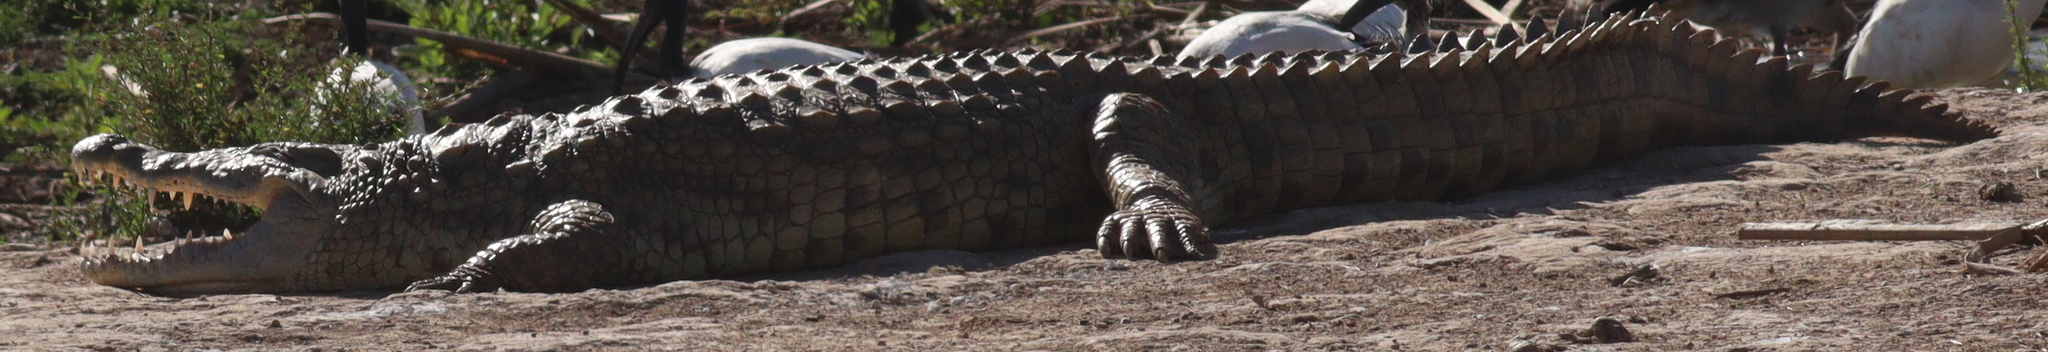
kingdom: Animalia
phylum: Chordata
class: Crocodylia
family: Crocodylidae
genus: Crocodylus
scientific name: Crocodylus niloticus
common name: Nile crocodile
